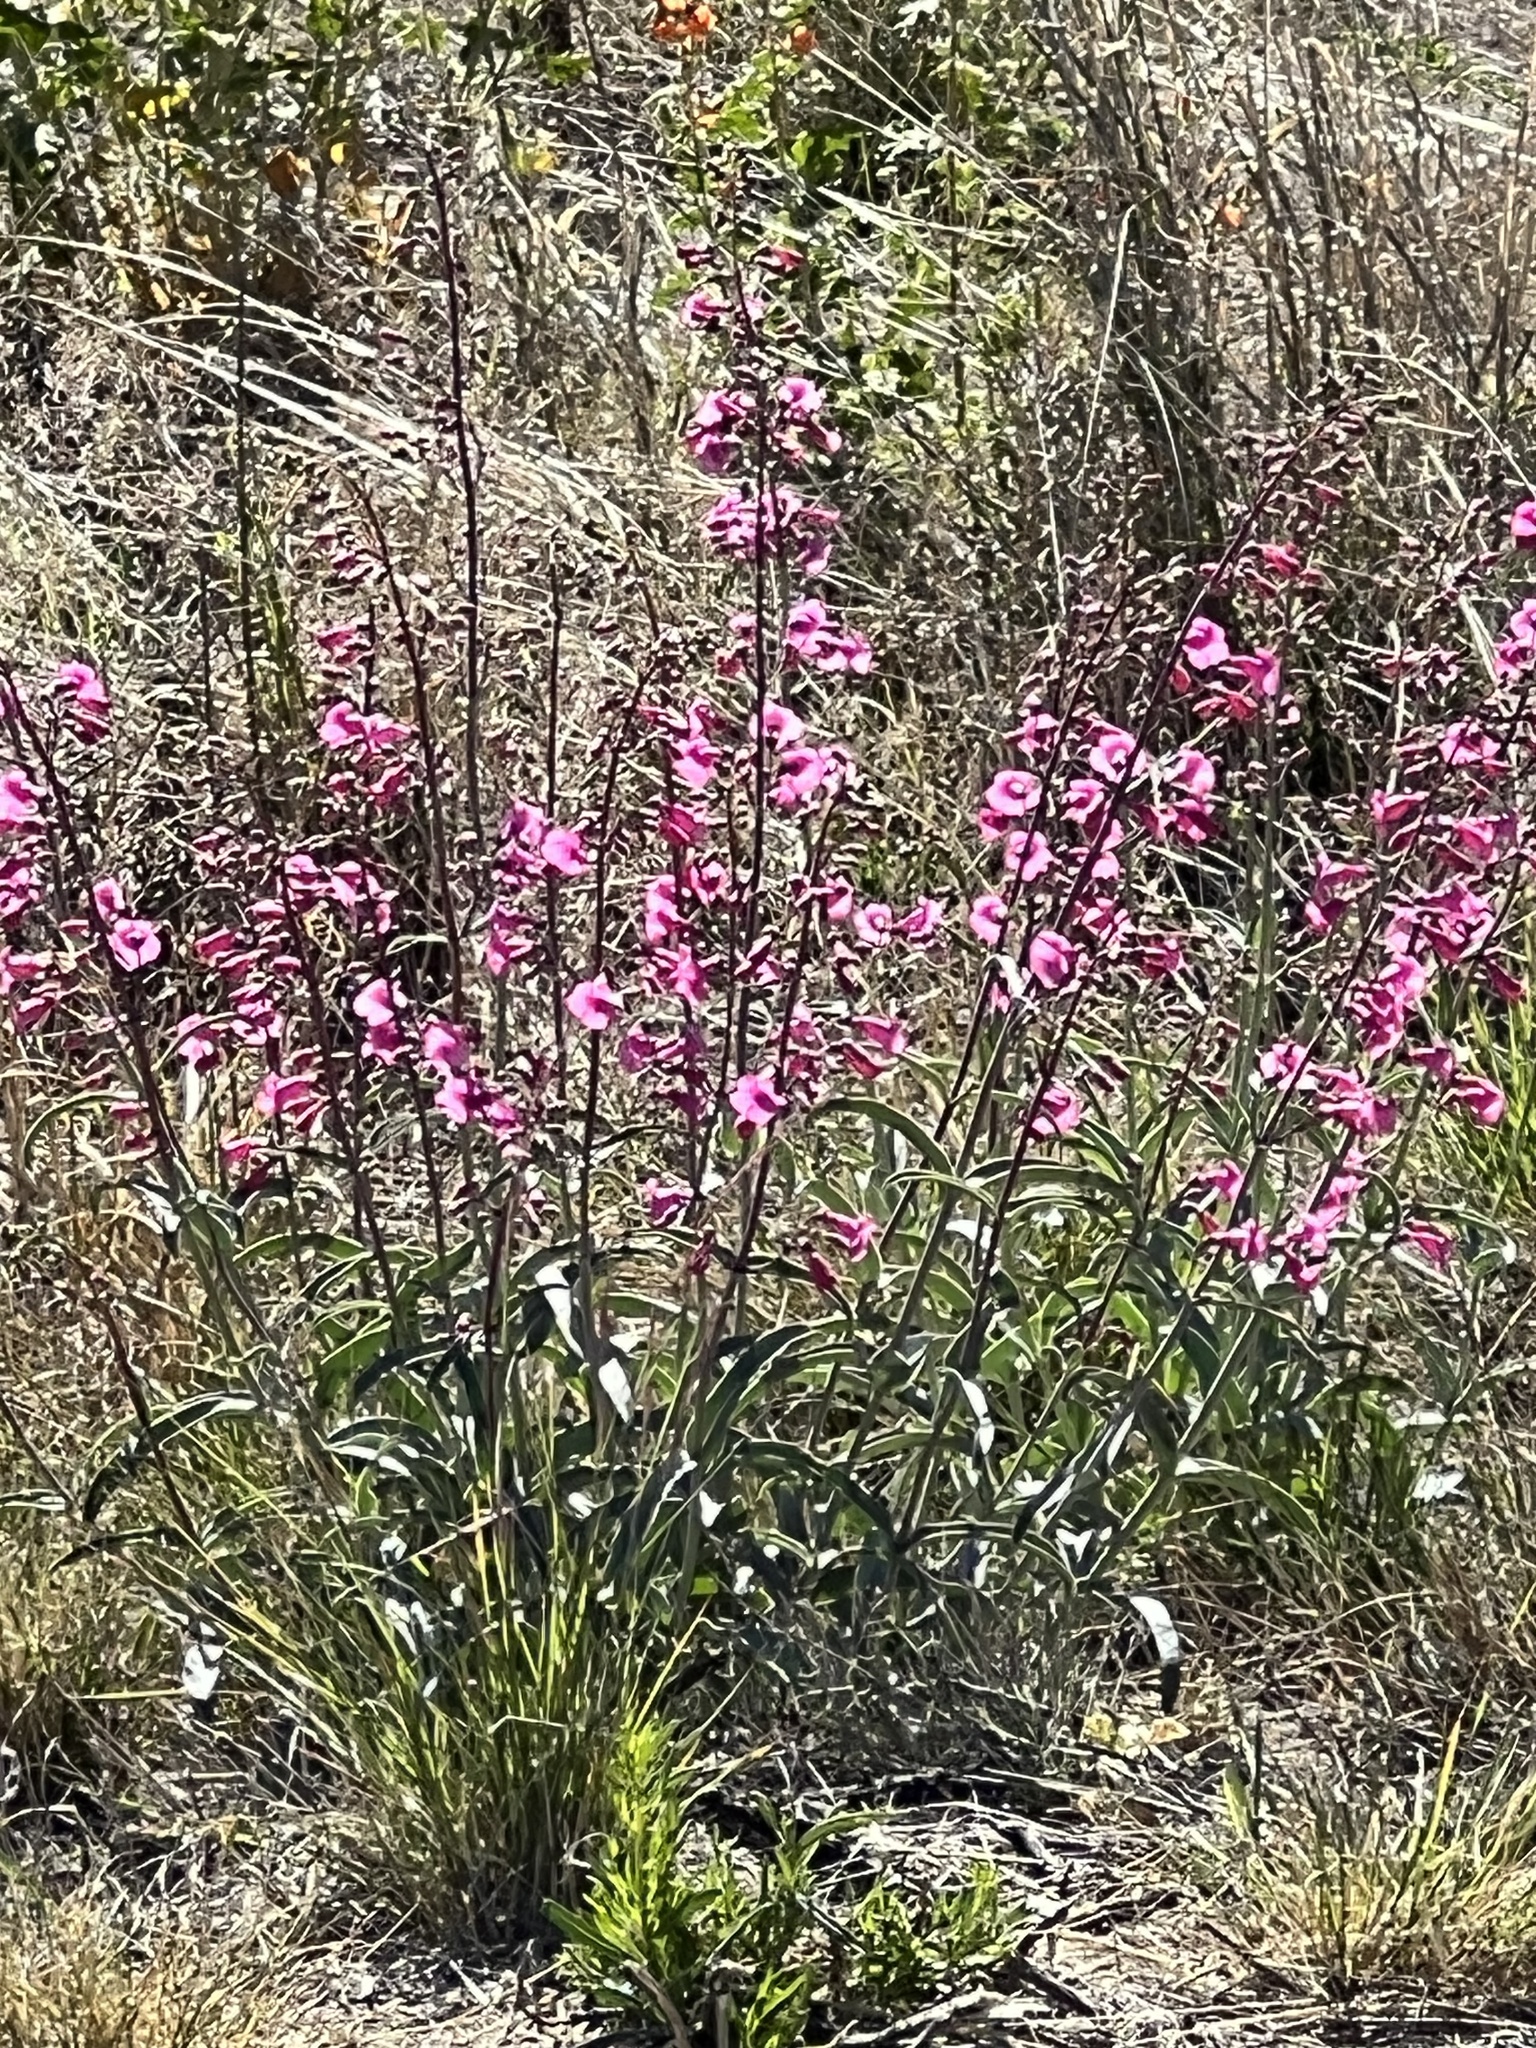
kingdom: Plantae
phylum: Tracheophyta
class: Magnoliopsida
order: Lamiales
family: Plantaginaceae
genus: Penstemon
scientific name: Penstemon parryi
